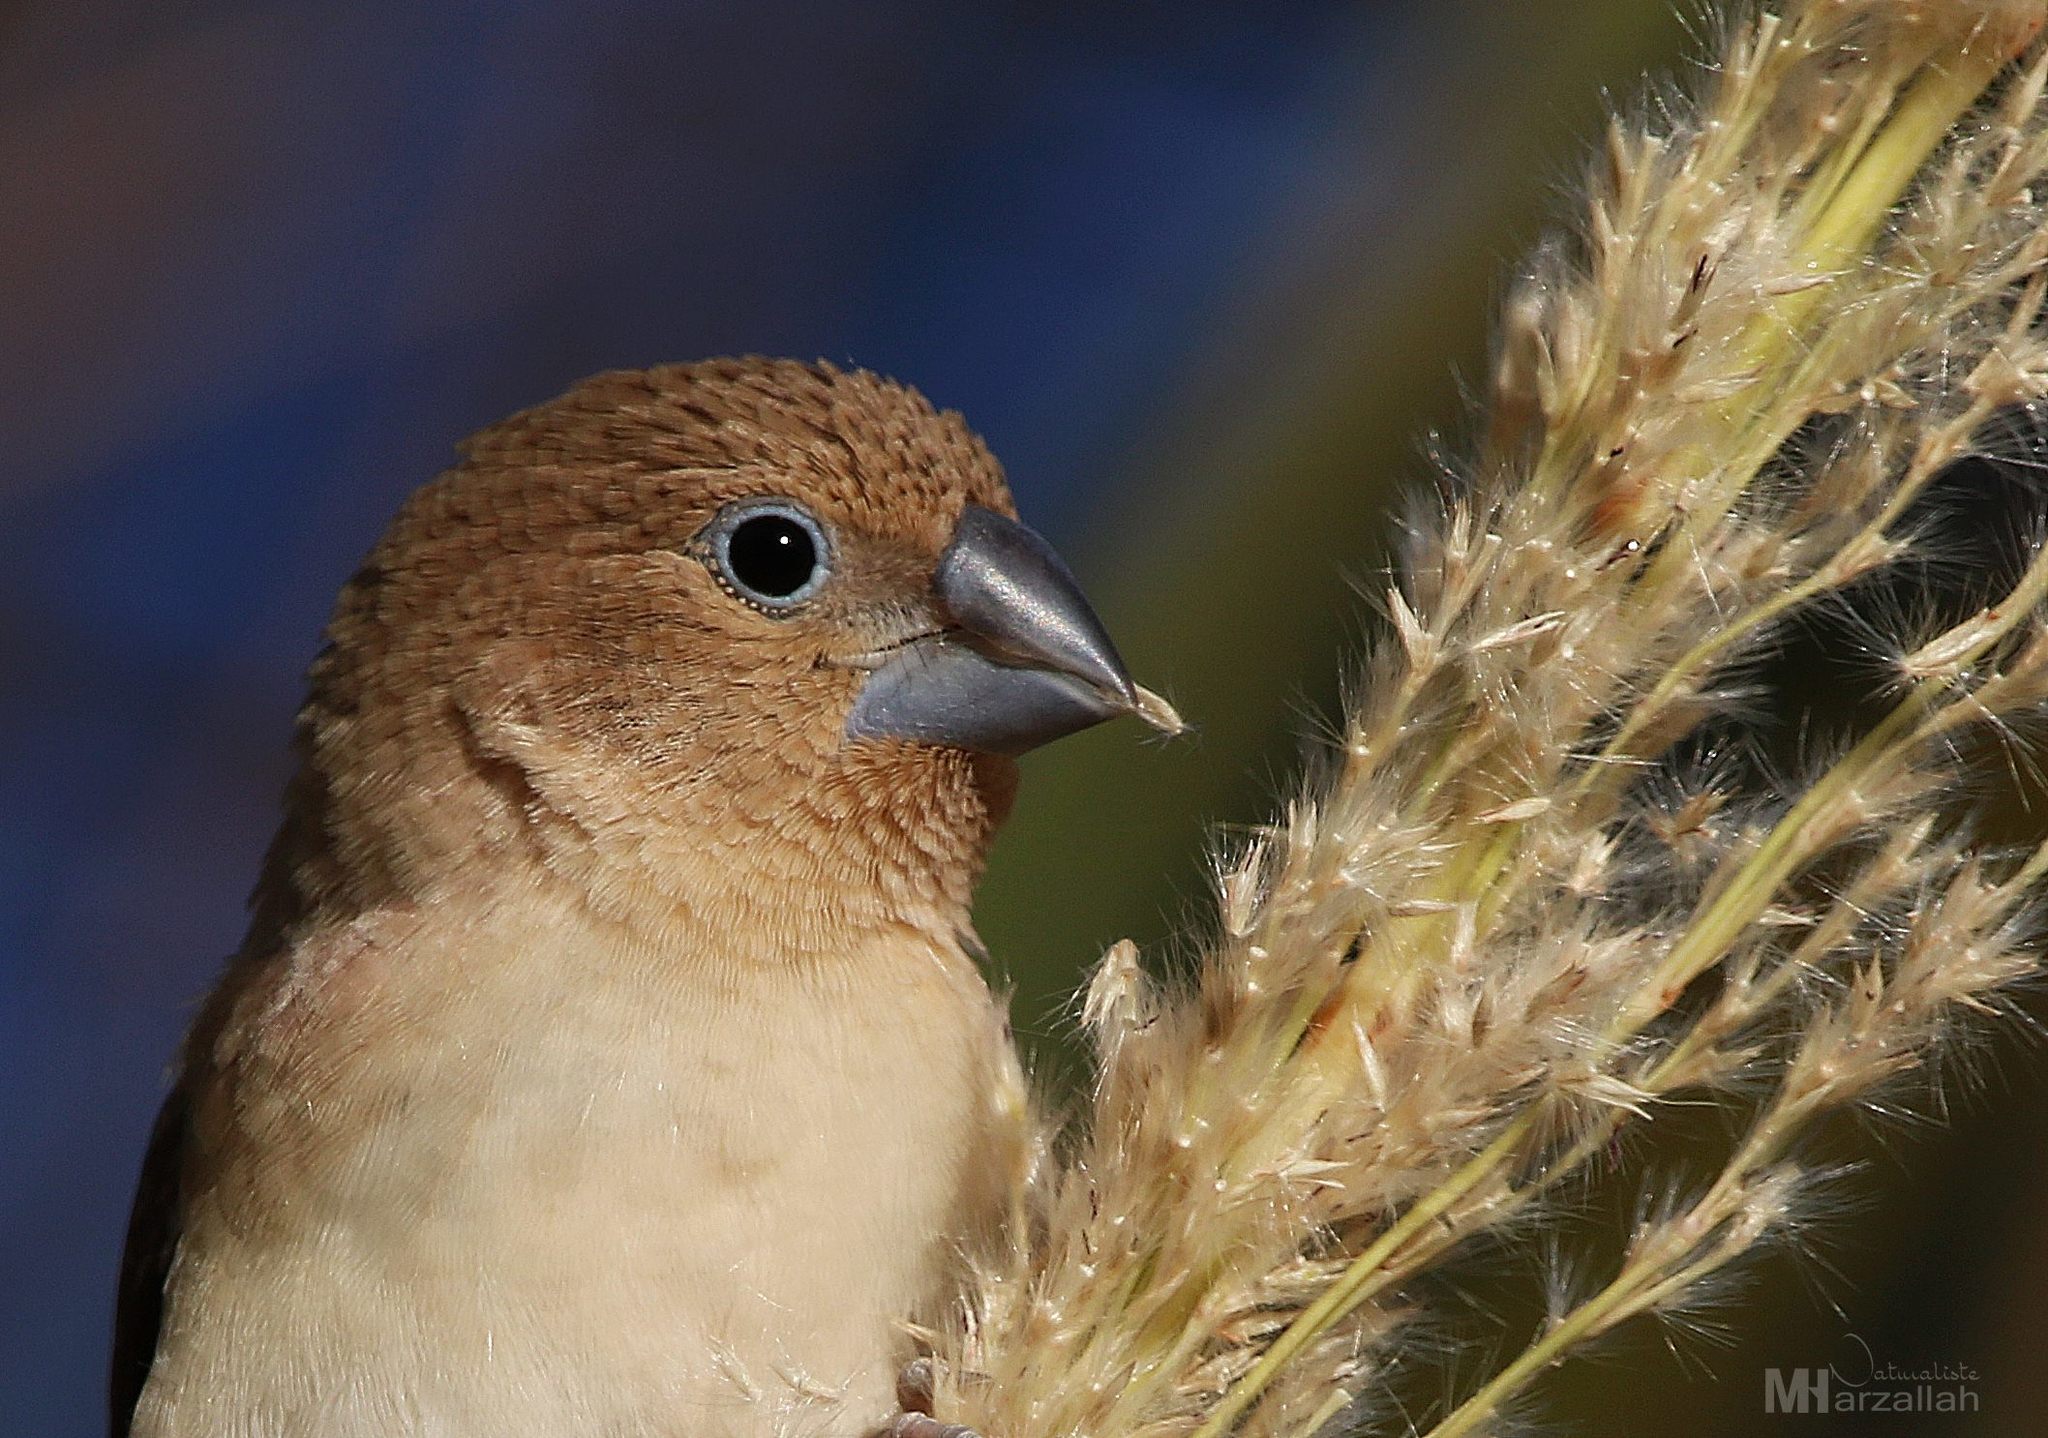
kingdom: Animalia
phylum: Chordata
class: Aves
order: Passeriformes
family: Estrildidae
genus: Euodice
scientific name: Euodice cantans
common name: African silverbill
